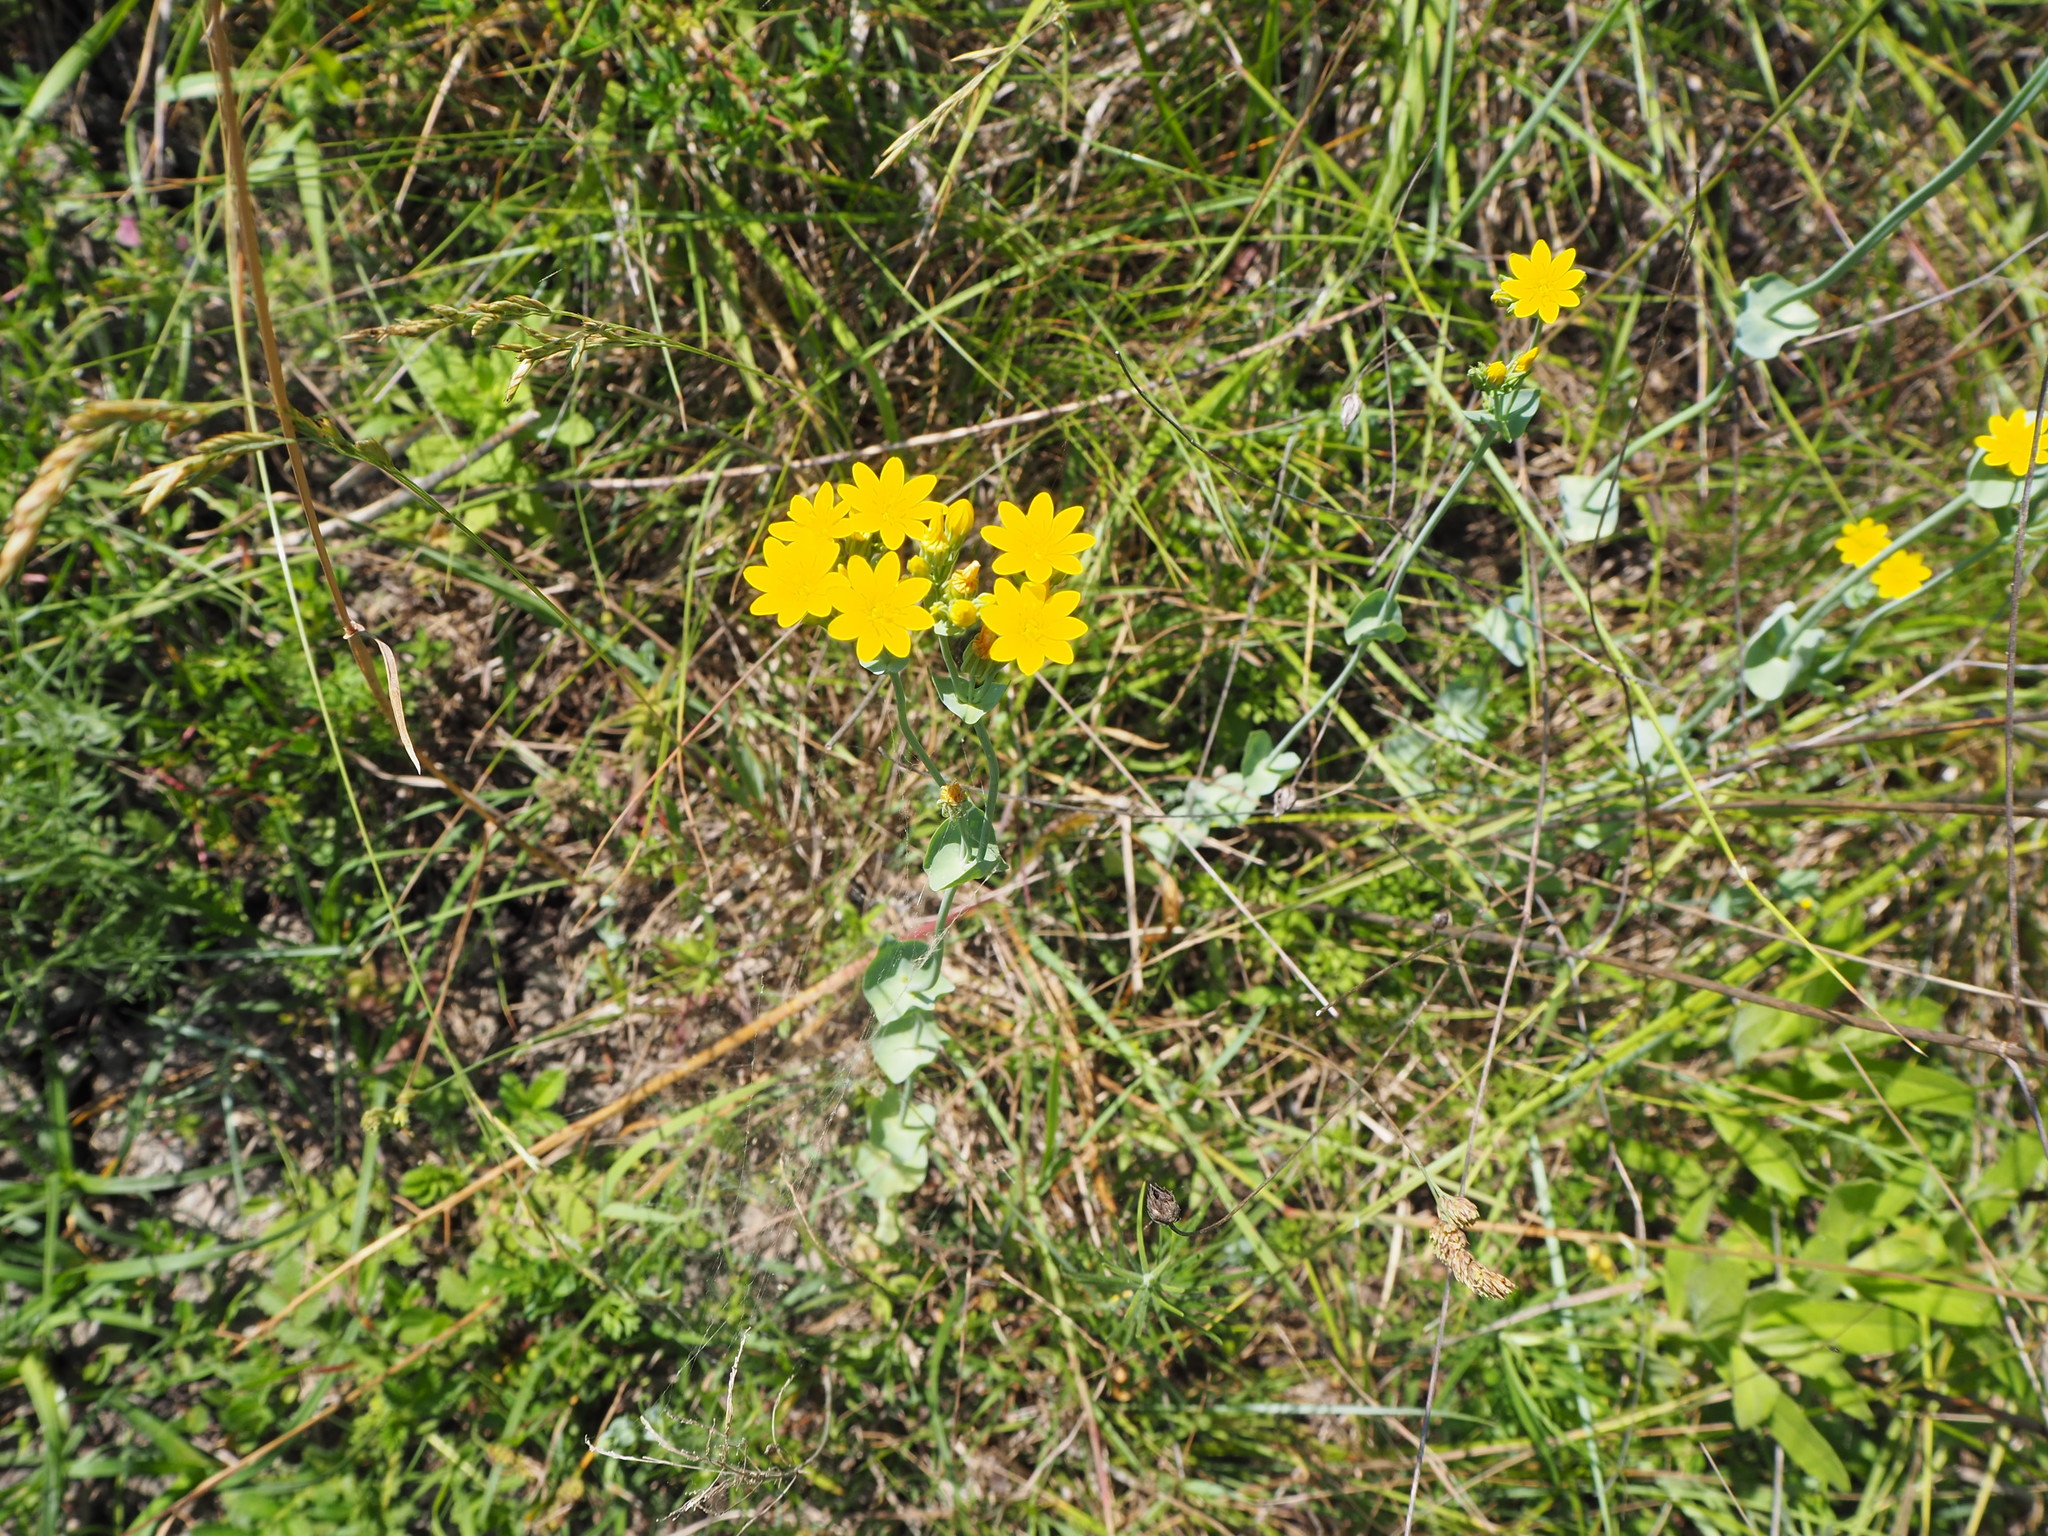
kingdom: Plantae
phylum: Tracheophyta
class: Magnoliopsida
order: Gentianales
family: Gentianaceae
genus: Blackstonia
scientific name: Blackstonia perfoliata
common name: Yellow-wort
